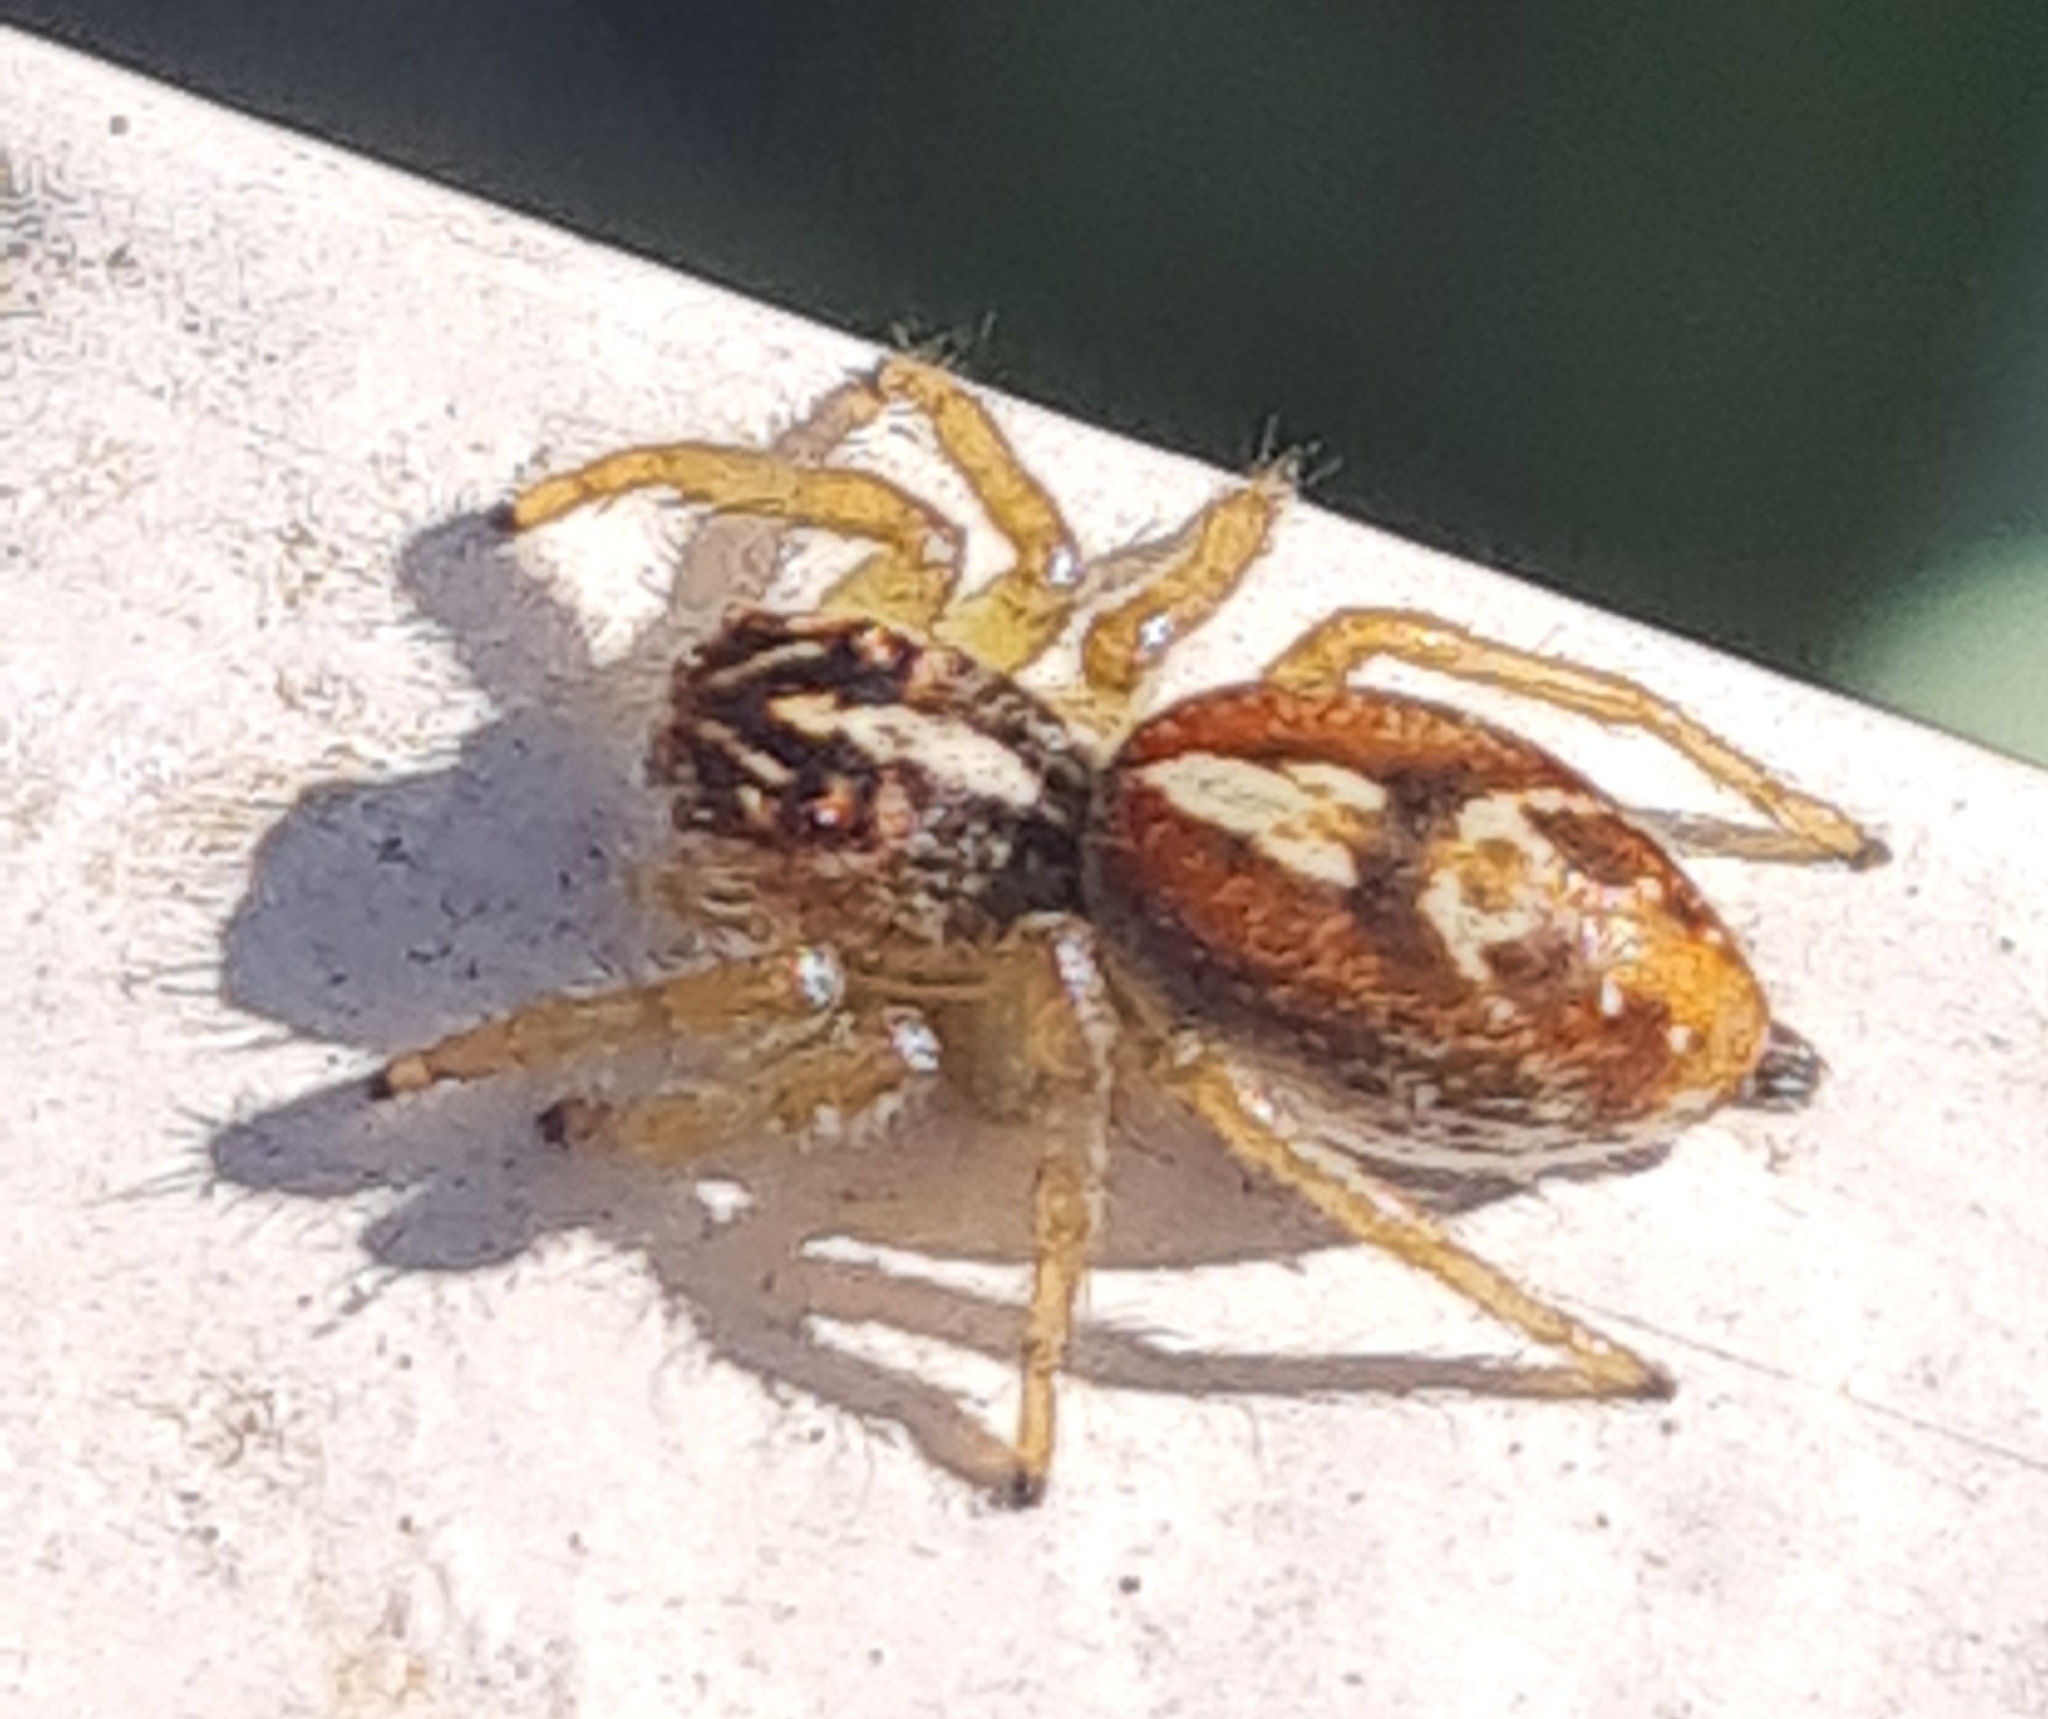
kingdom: Animalia
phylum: Arthropoda
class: Arachnida
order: Araneae
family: Salticidae
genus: Frigga
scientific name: Frigga quintensis
